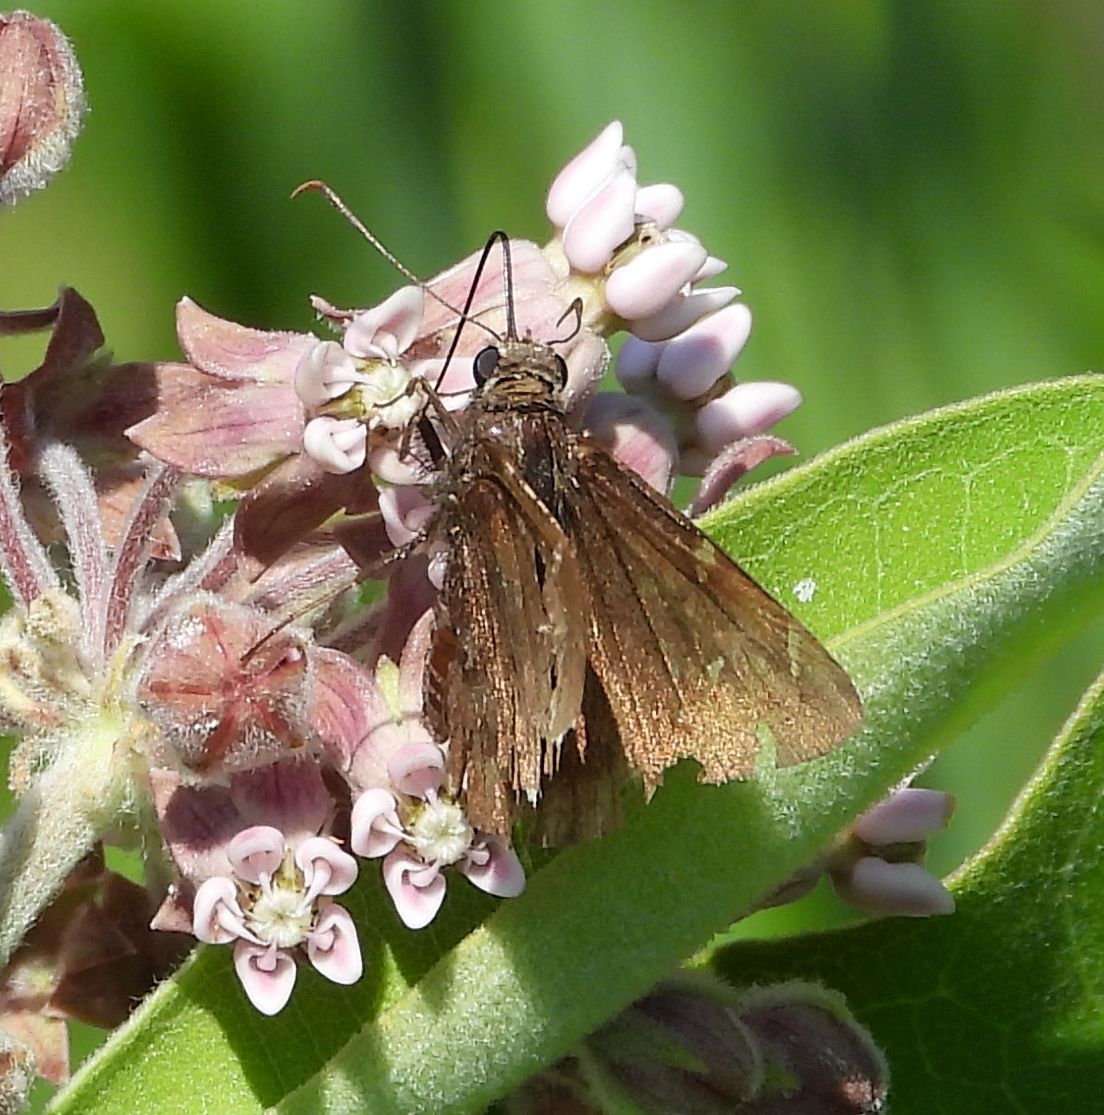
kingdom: Animalia
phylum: Arthropoda
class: Insecta
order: Lepidoptera
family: Hesperiidae
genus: Thorybes
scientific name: Thorybes pylades
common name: Northern cloudywing
